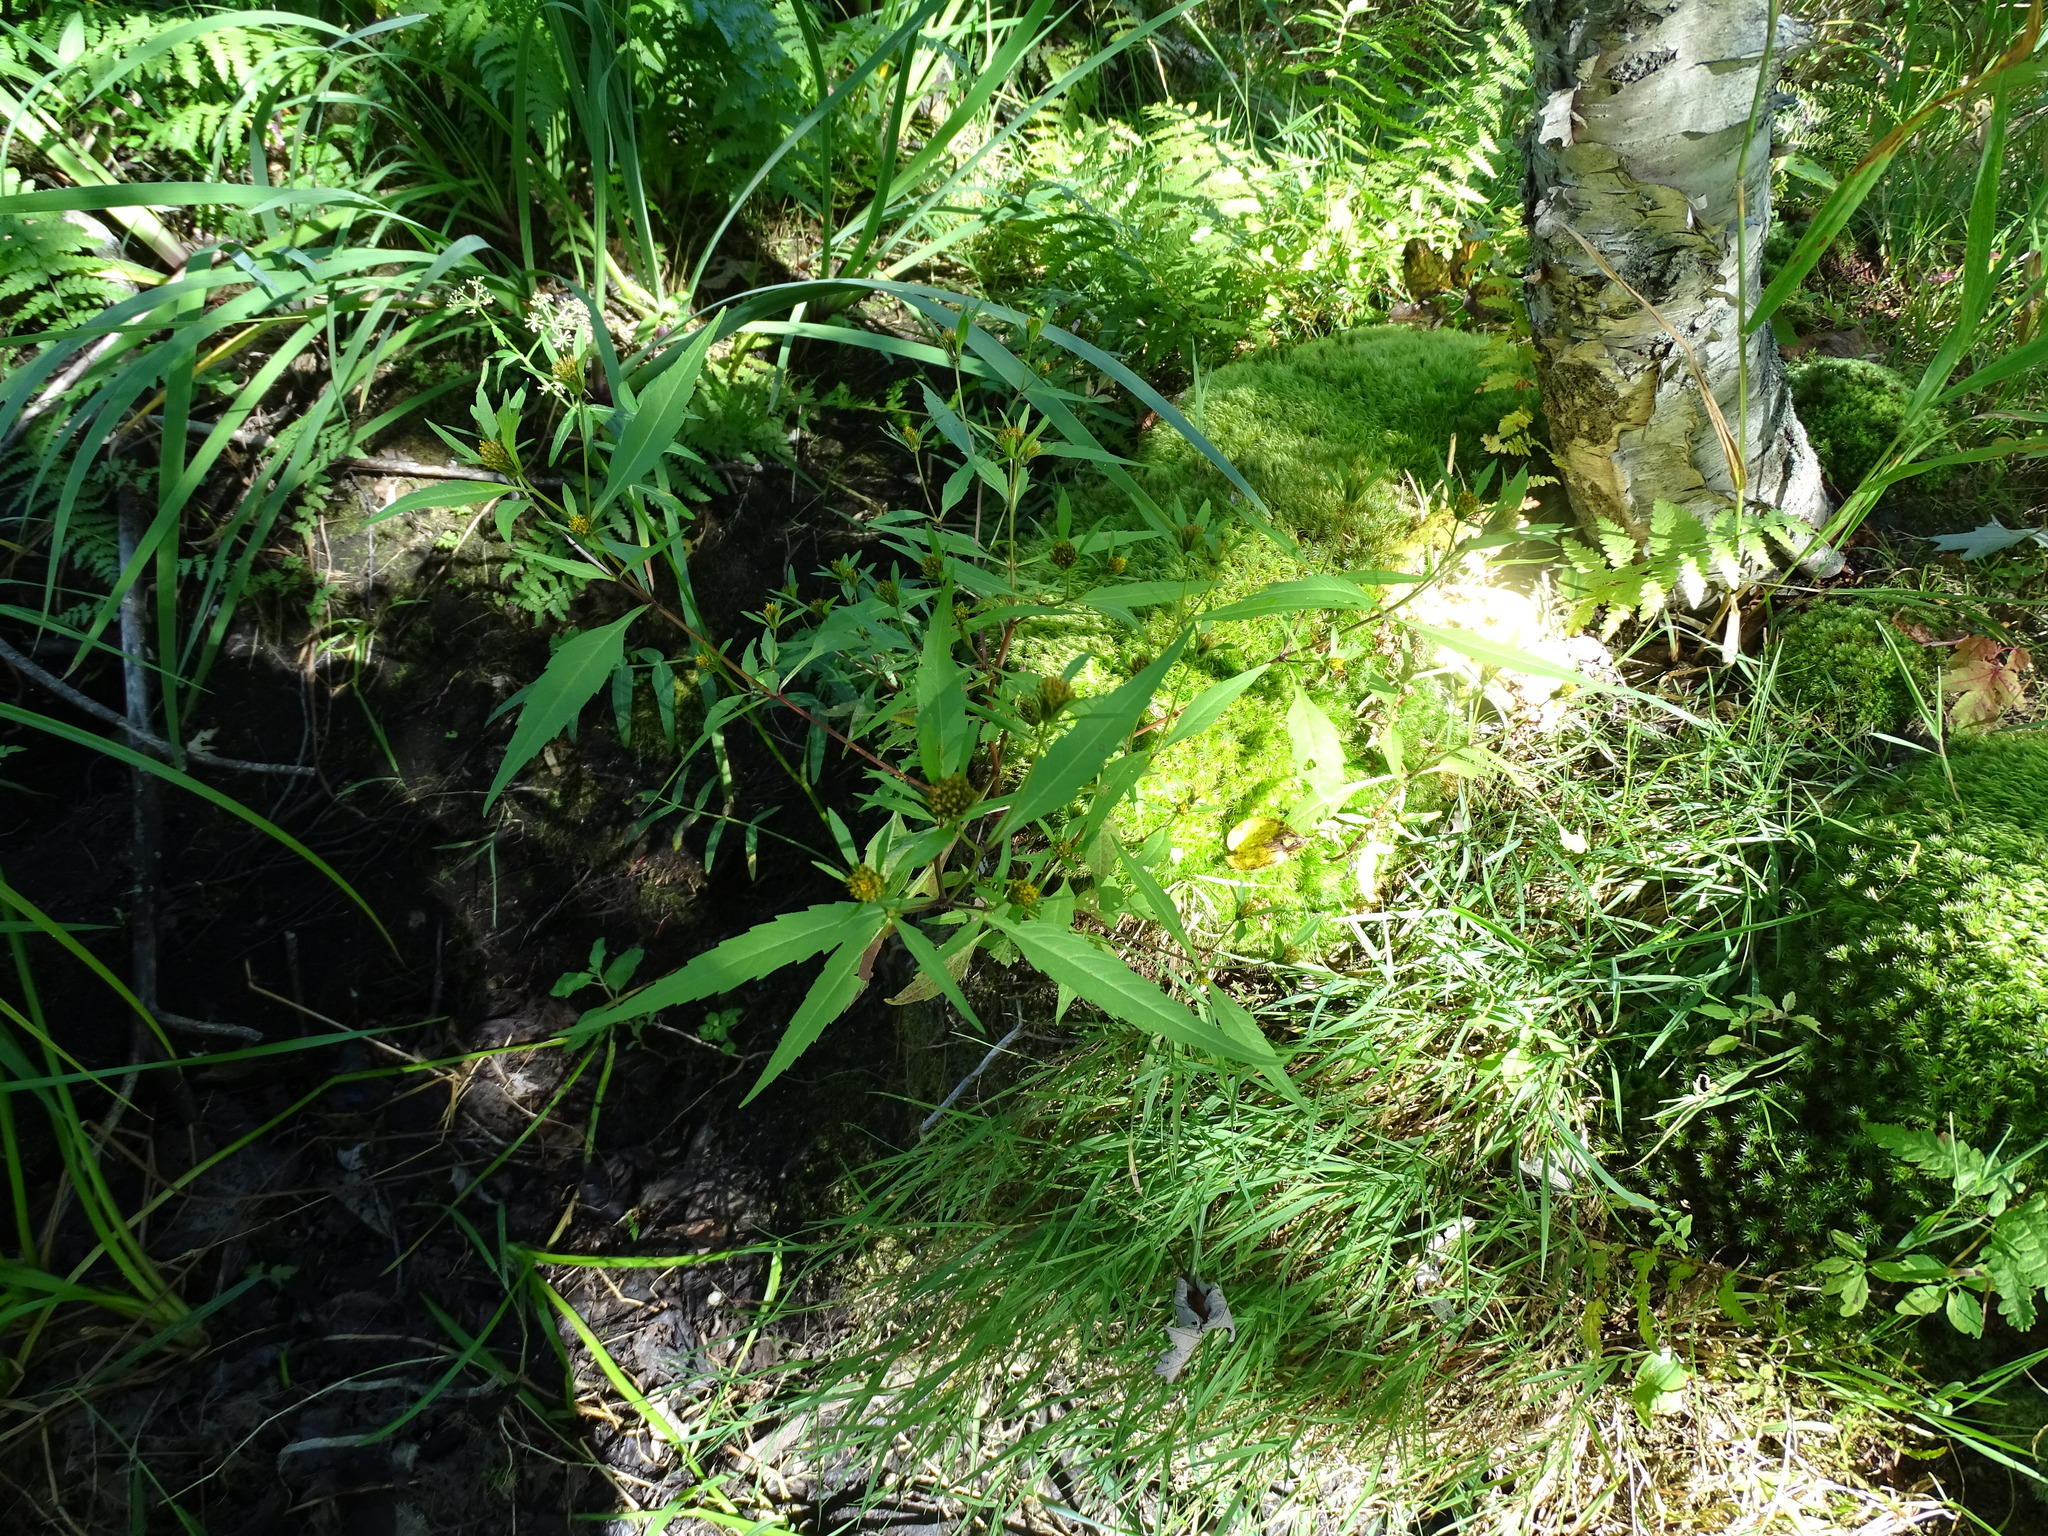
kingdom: Plantae
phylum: Tracheophyta
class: Magnoliopsida
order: Asterales
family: Asteraceae
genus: Bidens
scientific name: Bidens connata
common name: London bur-marigold
